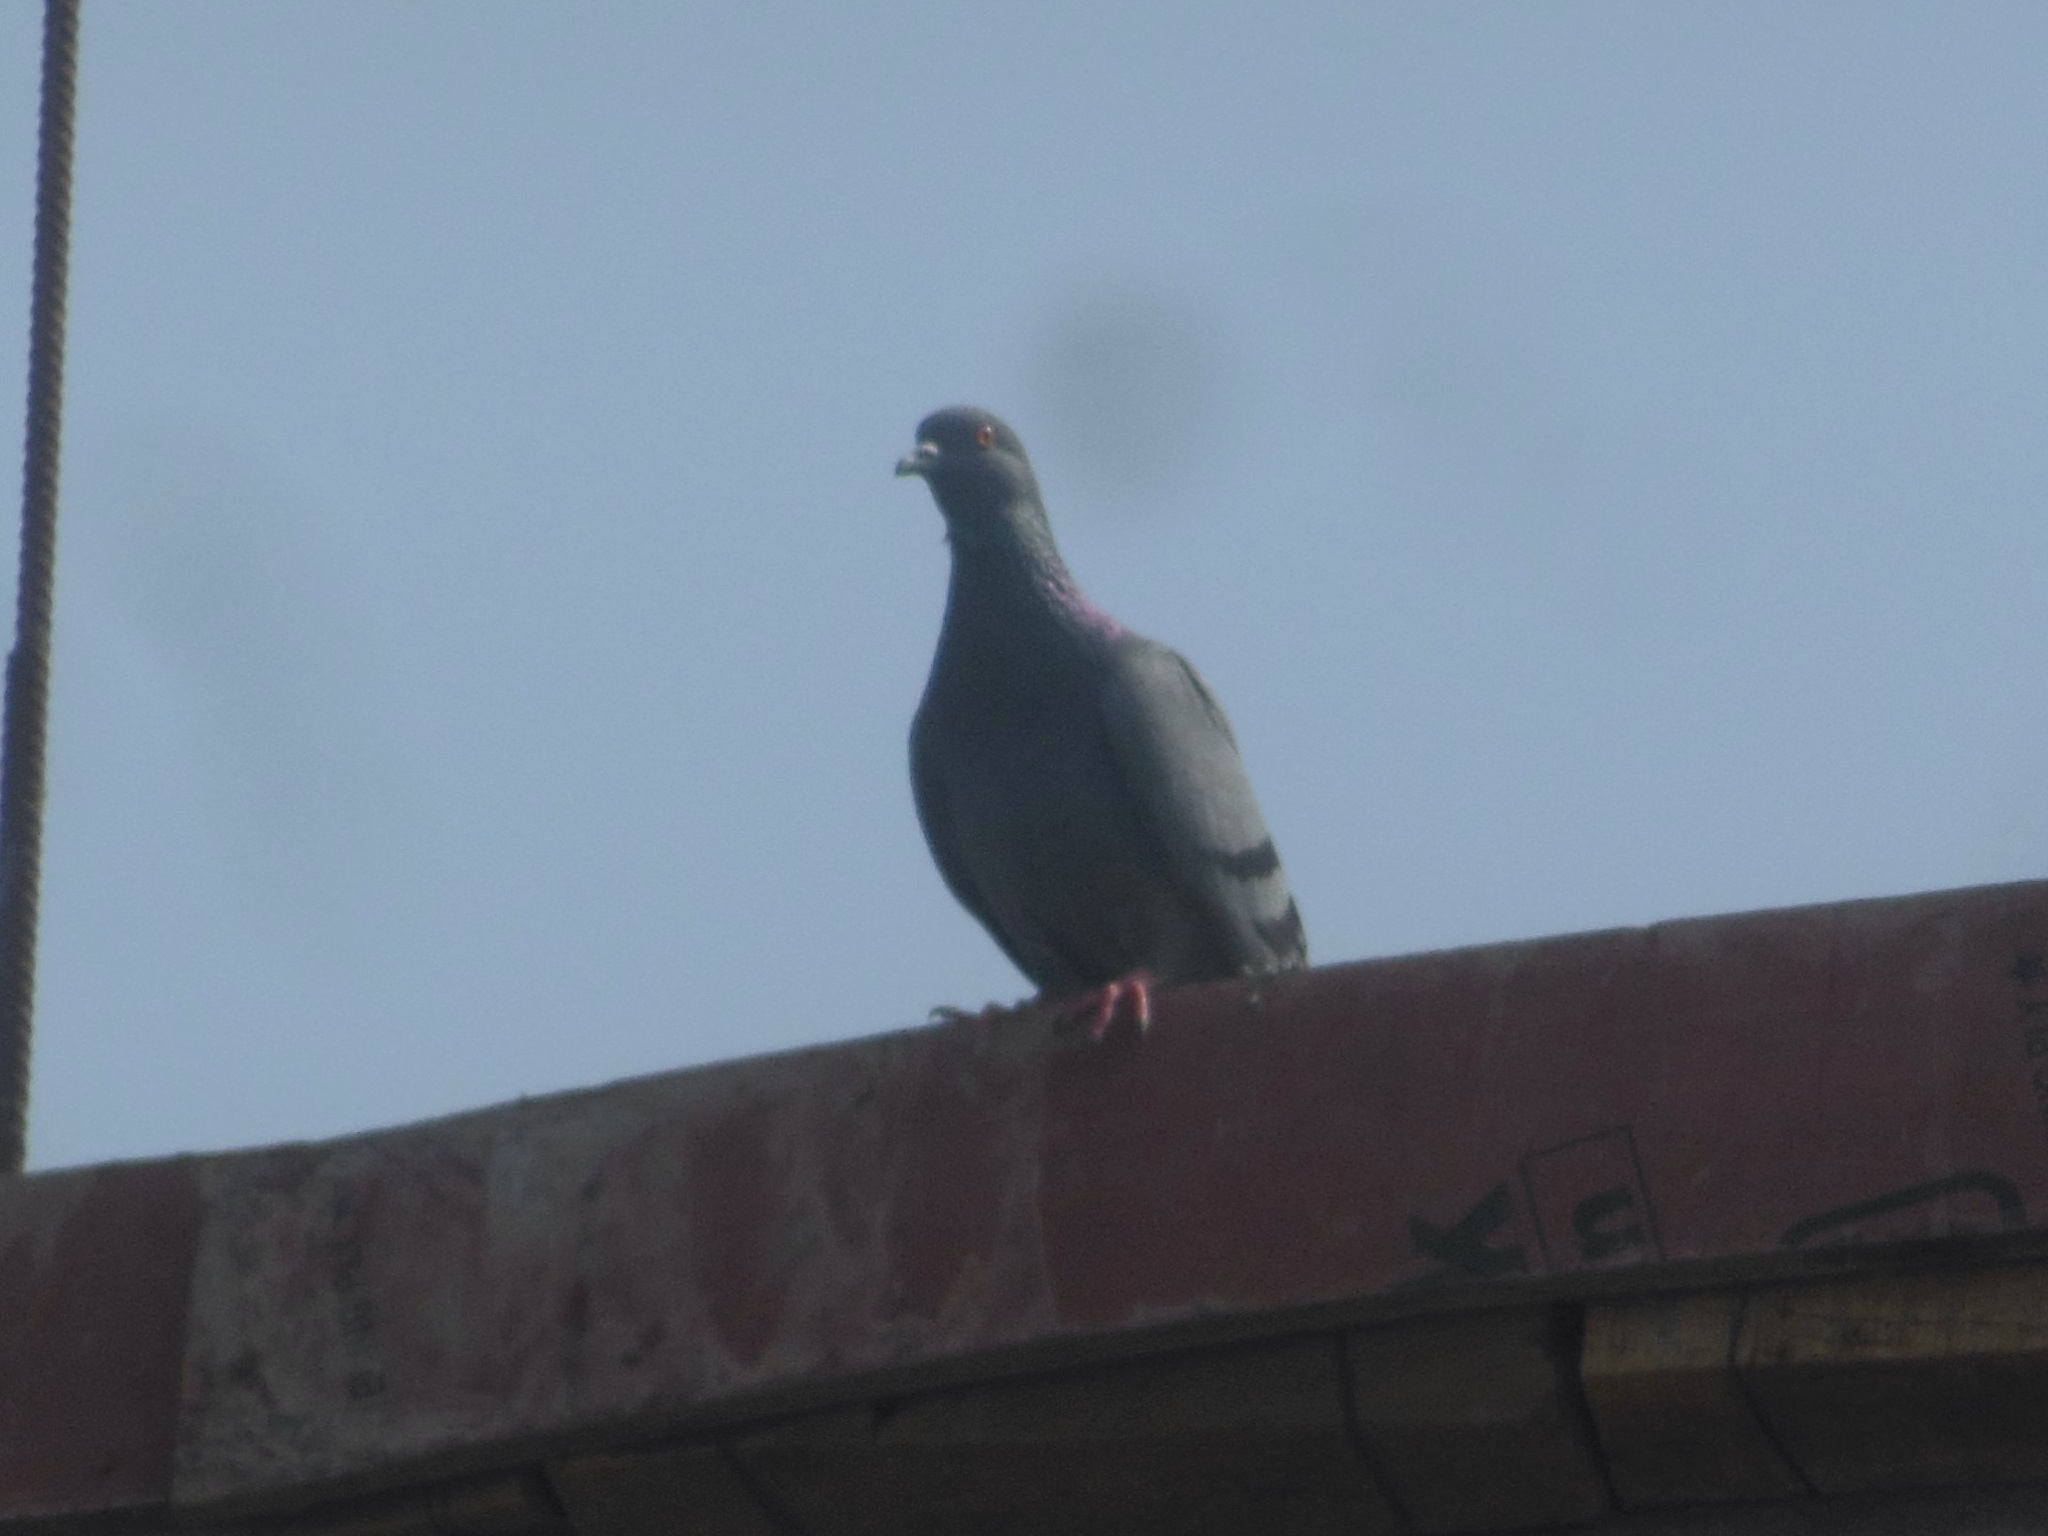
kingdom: Animalia
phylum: Chordata
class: Aves
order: Columbiformes
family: Columbidae
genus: Columba
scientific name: Columba livia
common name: Rock pigeon
